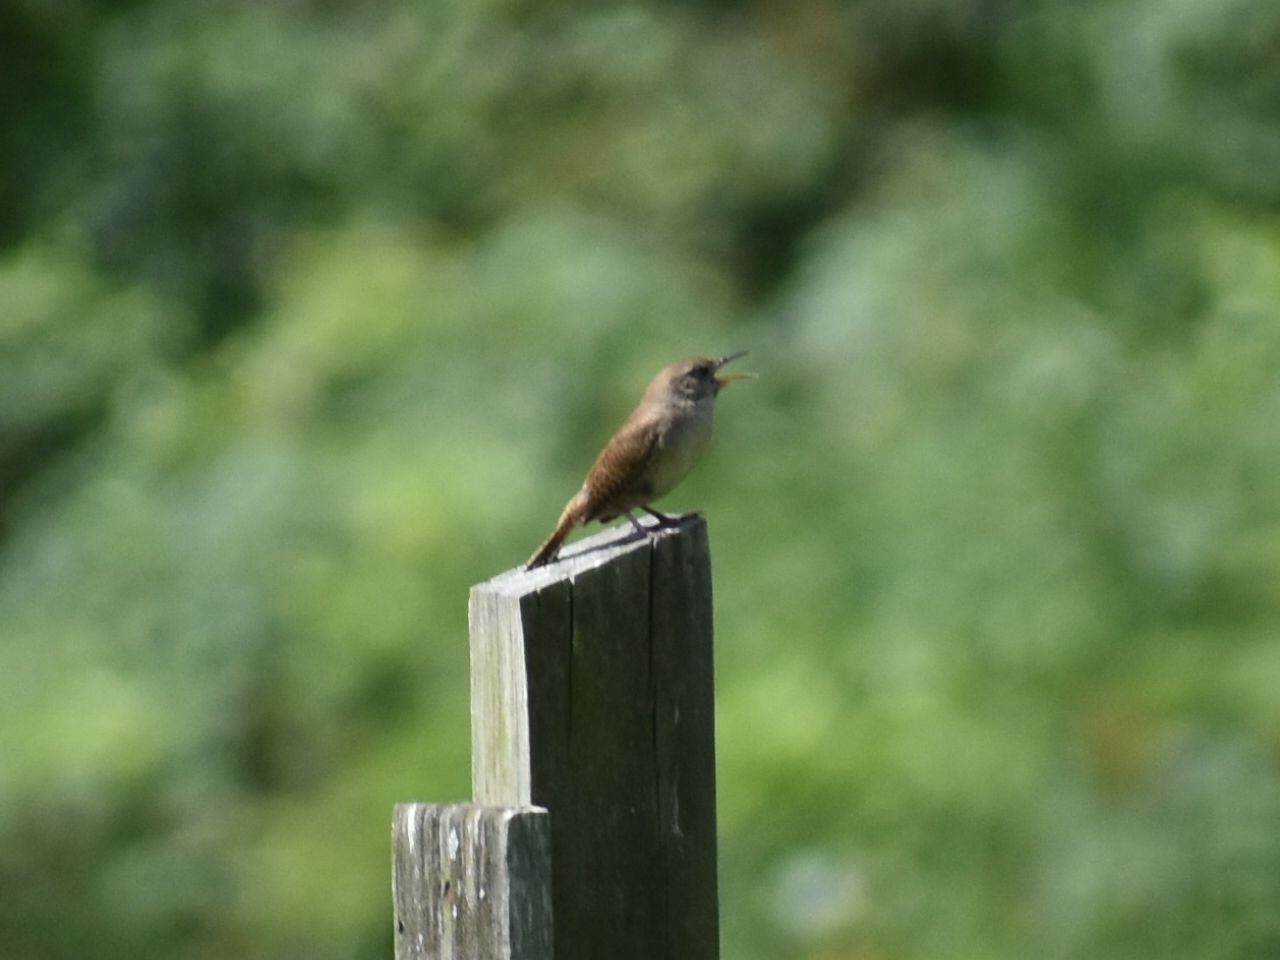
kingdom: Animalia
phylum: Chordata
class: Aves
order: Passeriformes
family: Troglodytidae
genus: Troglodytes
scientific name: Troglodytes aedon
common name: House wren
